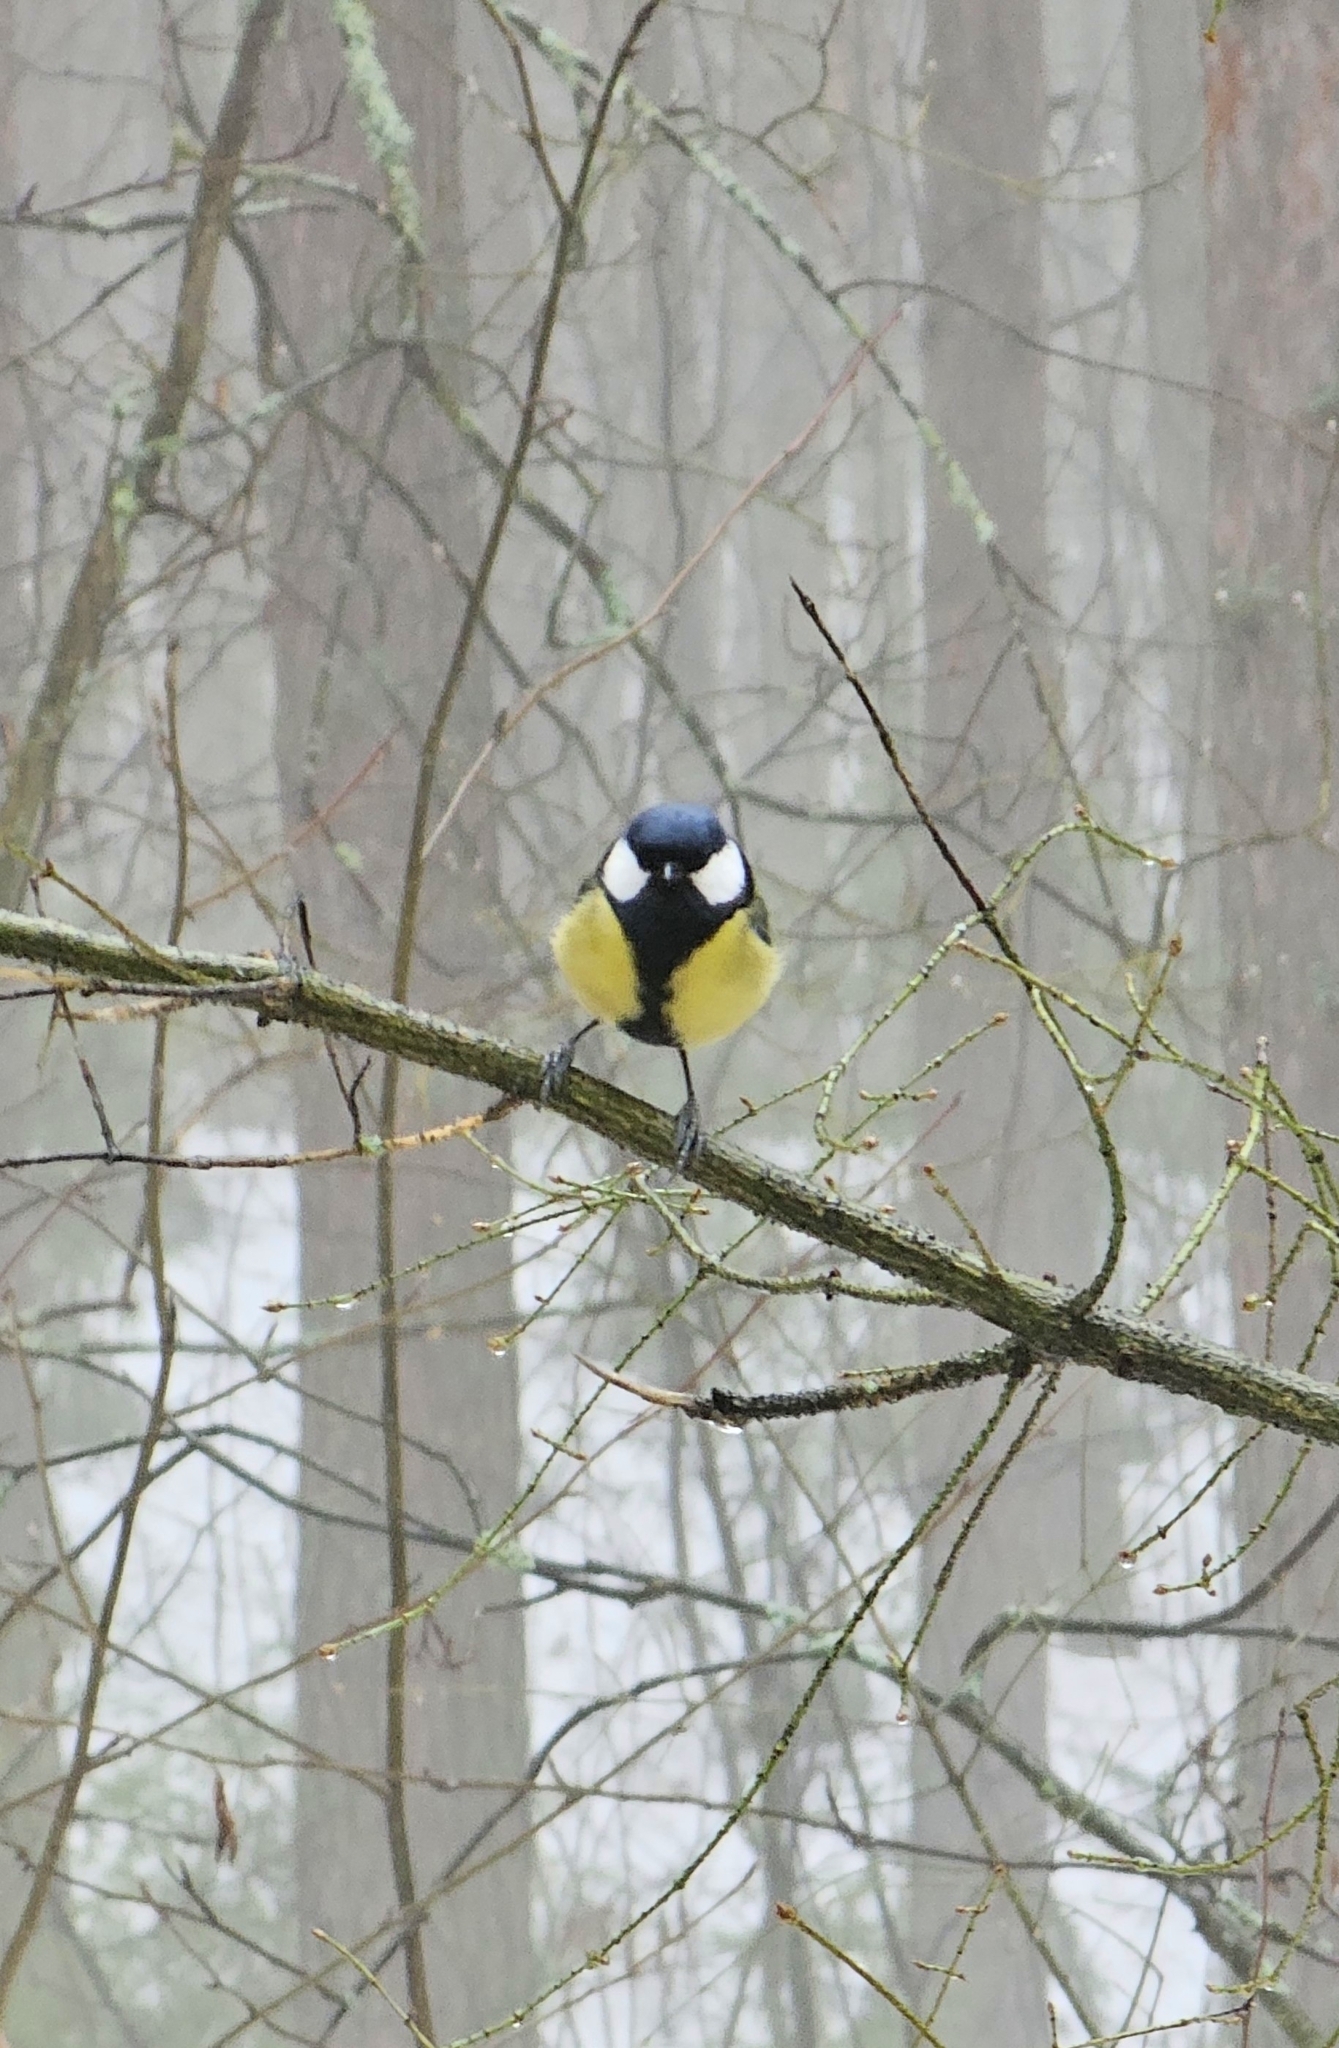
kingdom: Animalia
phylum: Chordata
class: Aves
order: Passeriformes
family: Paridae
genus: Parus
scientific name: Parus major
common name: Great tit
